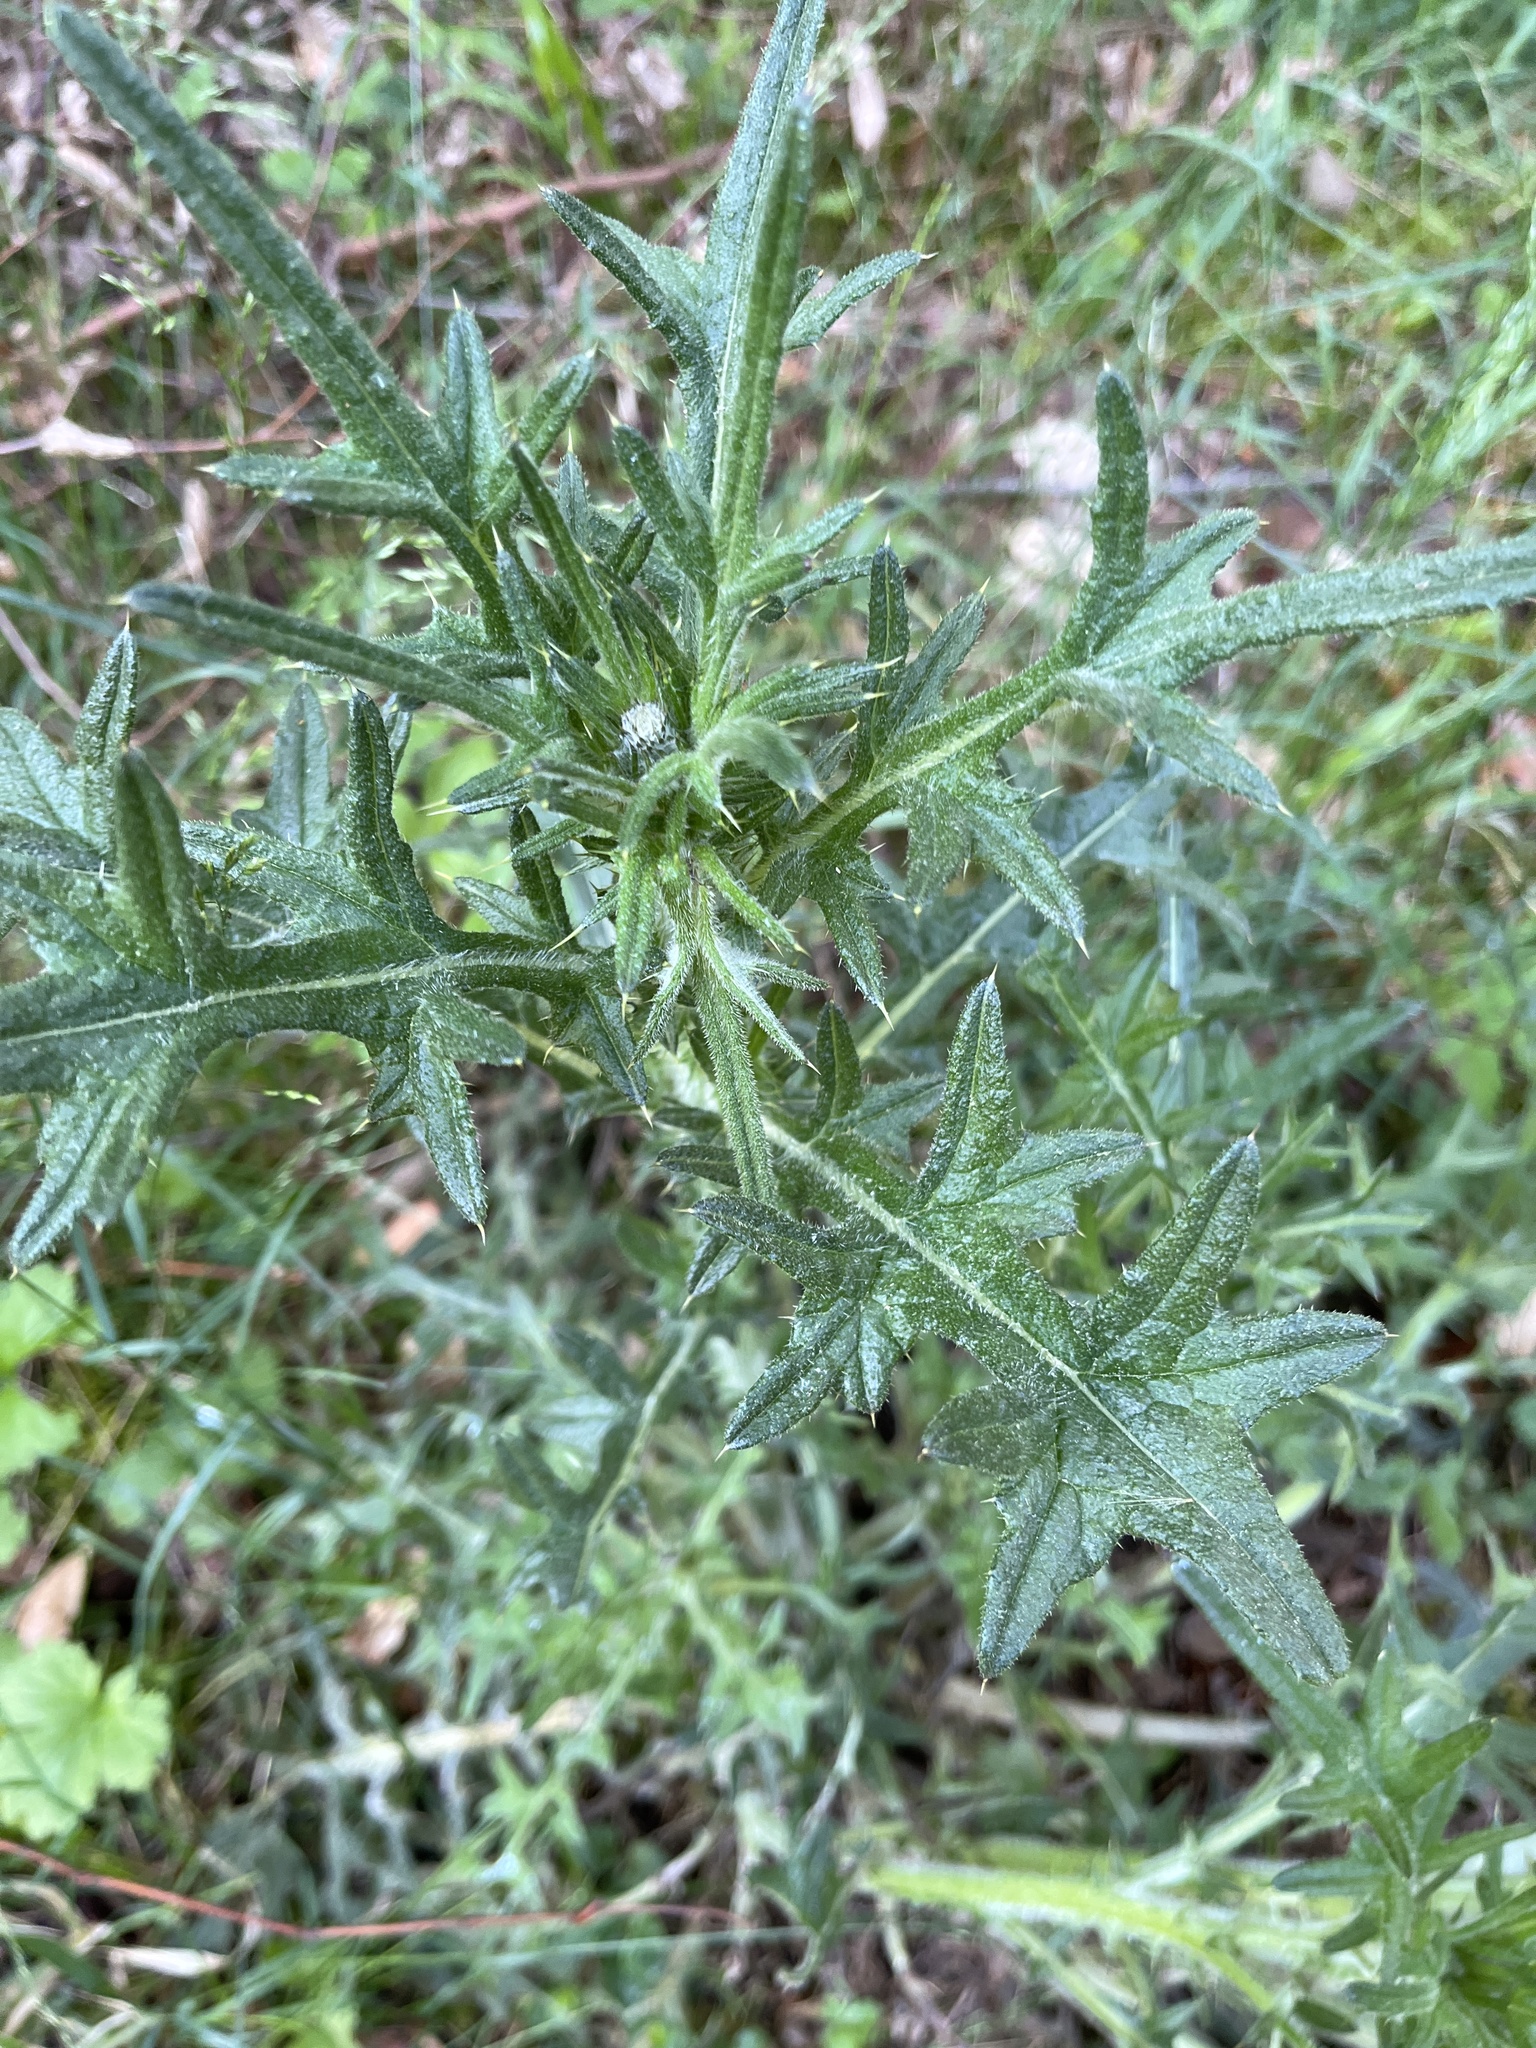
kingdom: Plantae
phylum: Tracheophyta
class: Magnoliopsida
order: Asterales
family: Asteraceae
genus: Cirsium
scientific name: Cirsium vulgare
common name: Bull thistle
